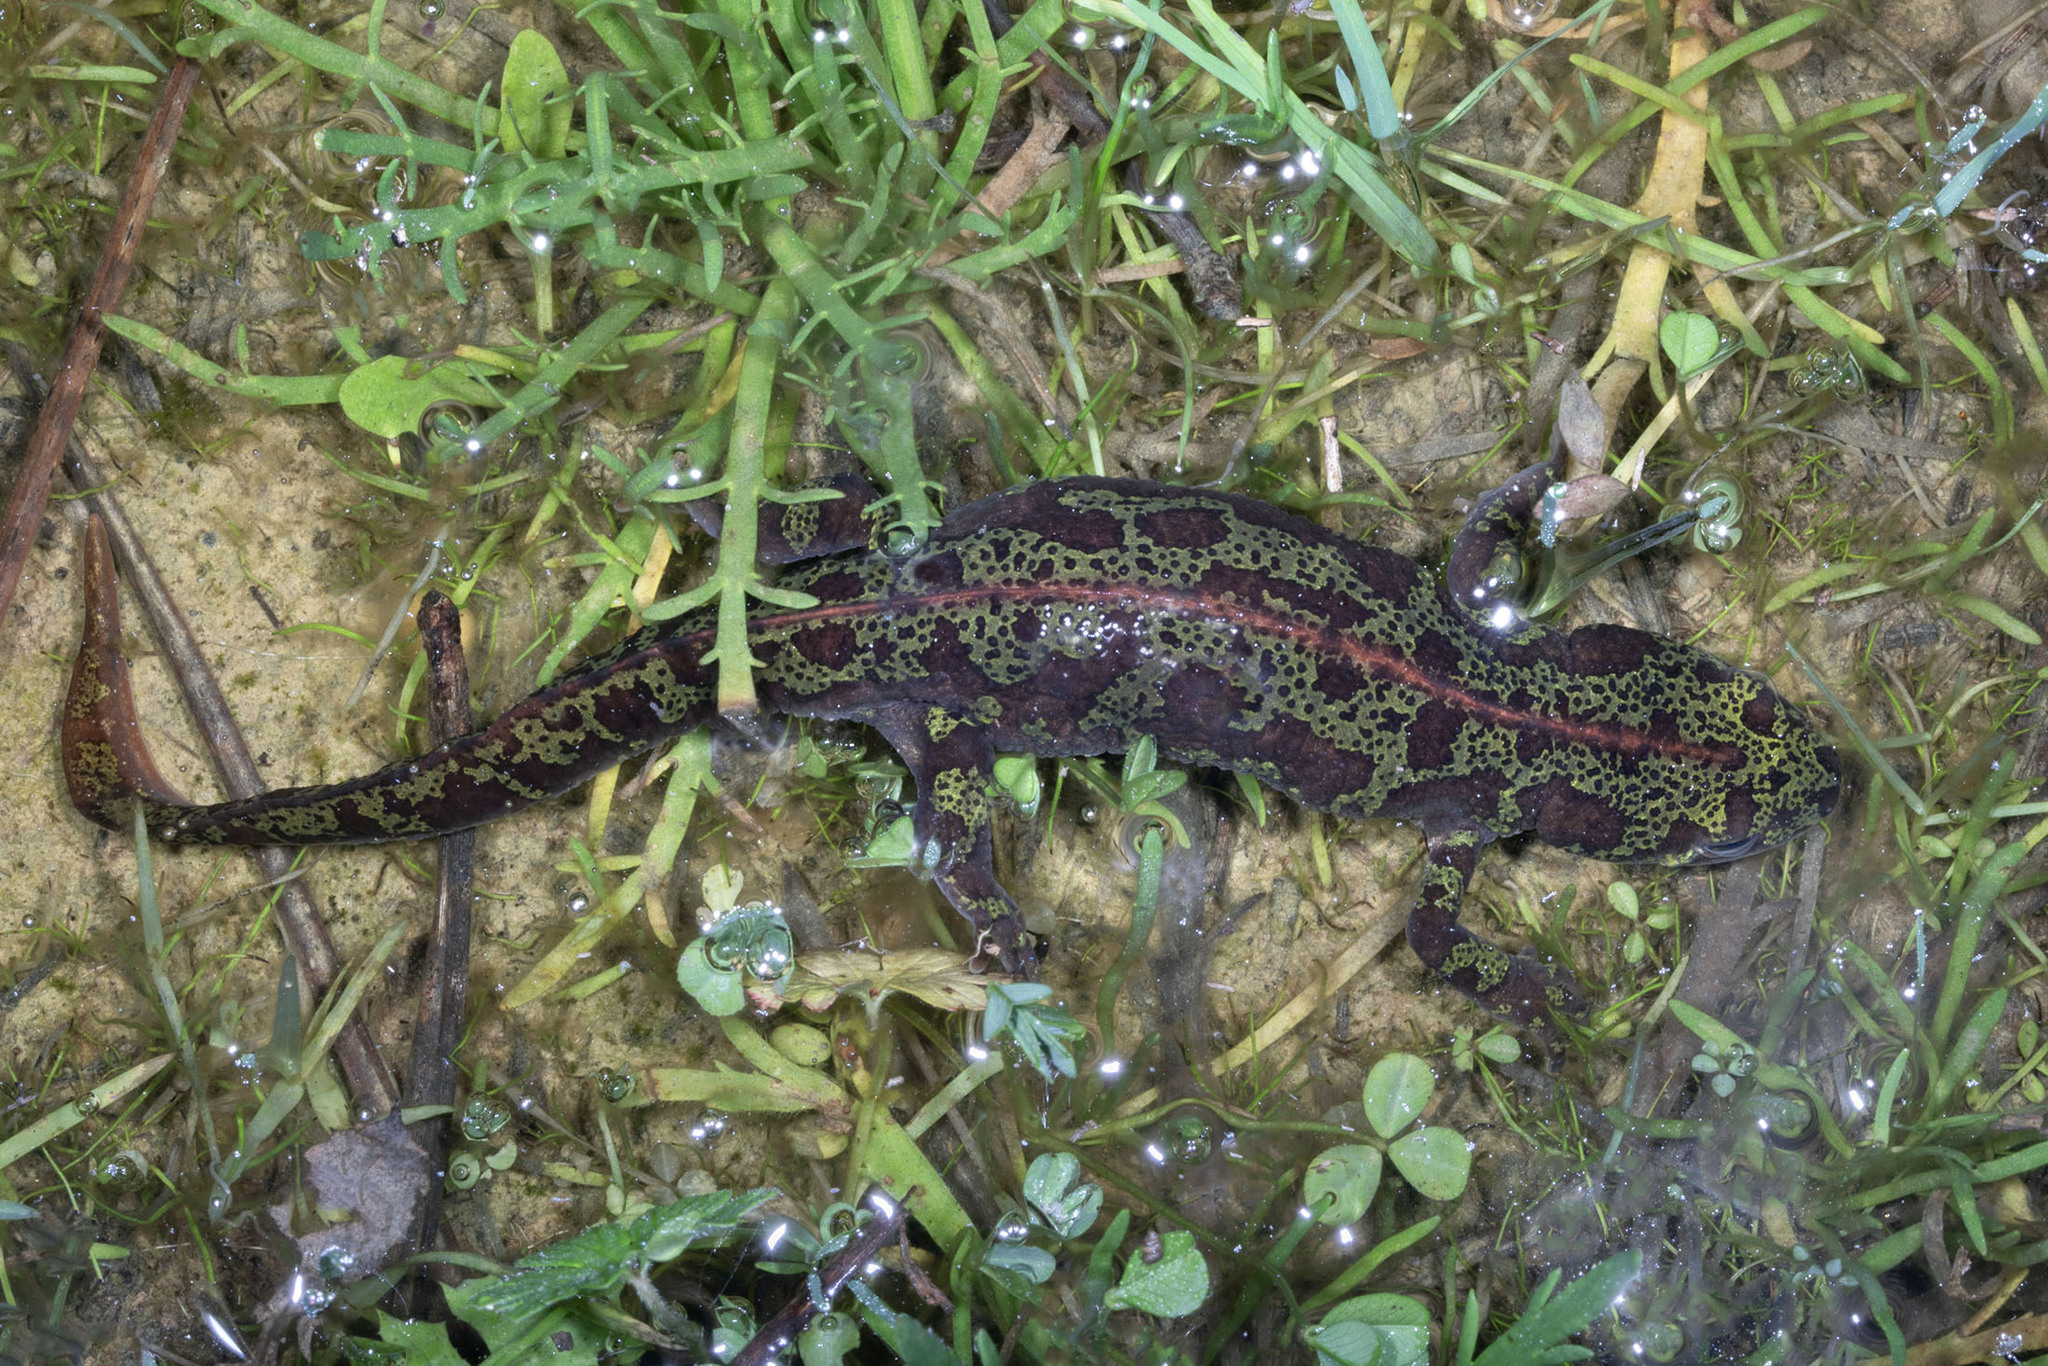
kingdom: Animalia
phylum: Chordata
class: Amphibia
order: Caudata
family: Salamandridae
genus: Triturus
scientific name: Triturus marmoratus
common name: Marbled newt
